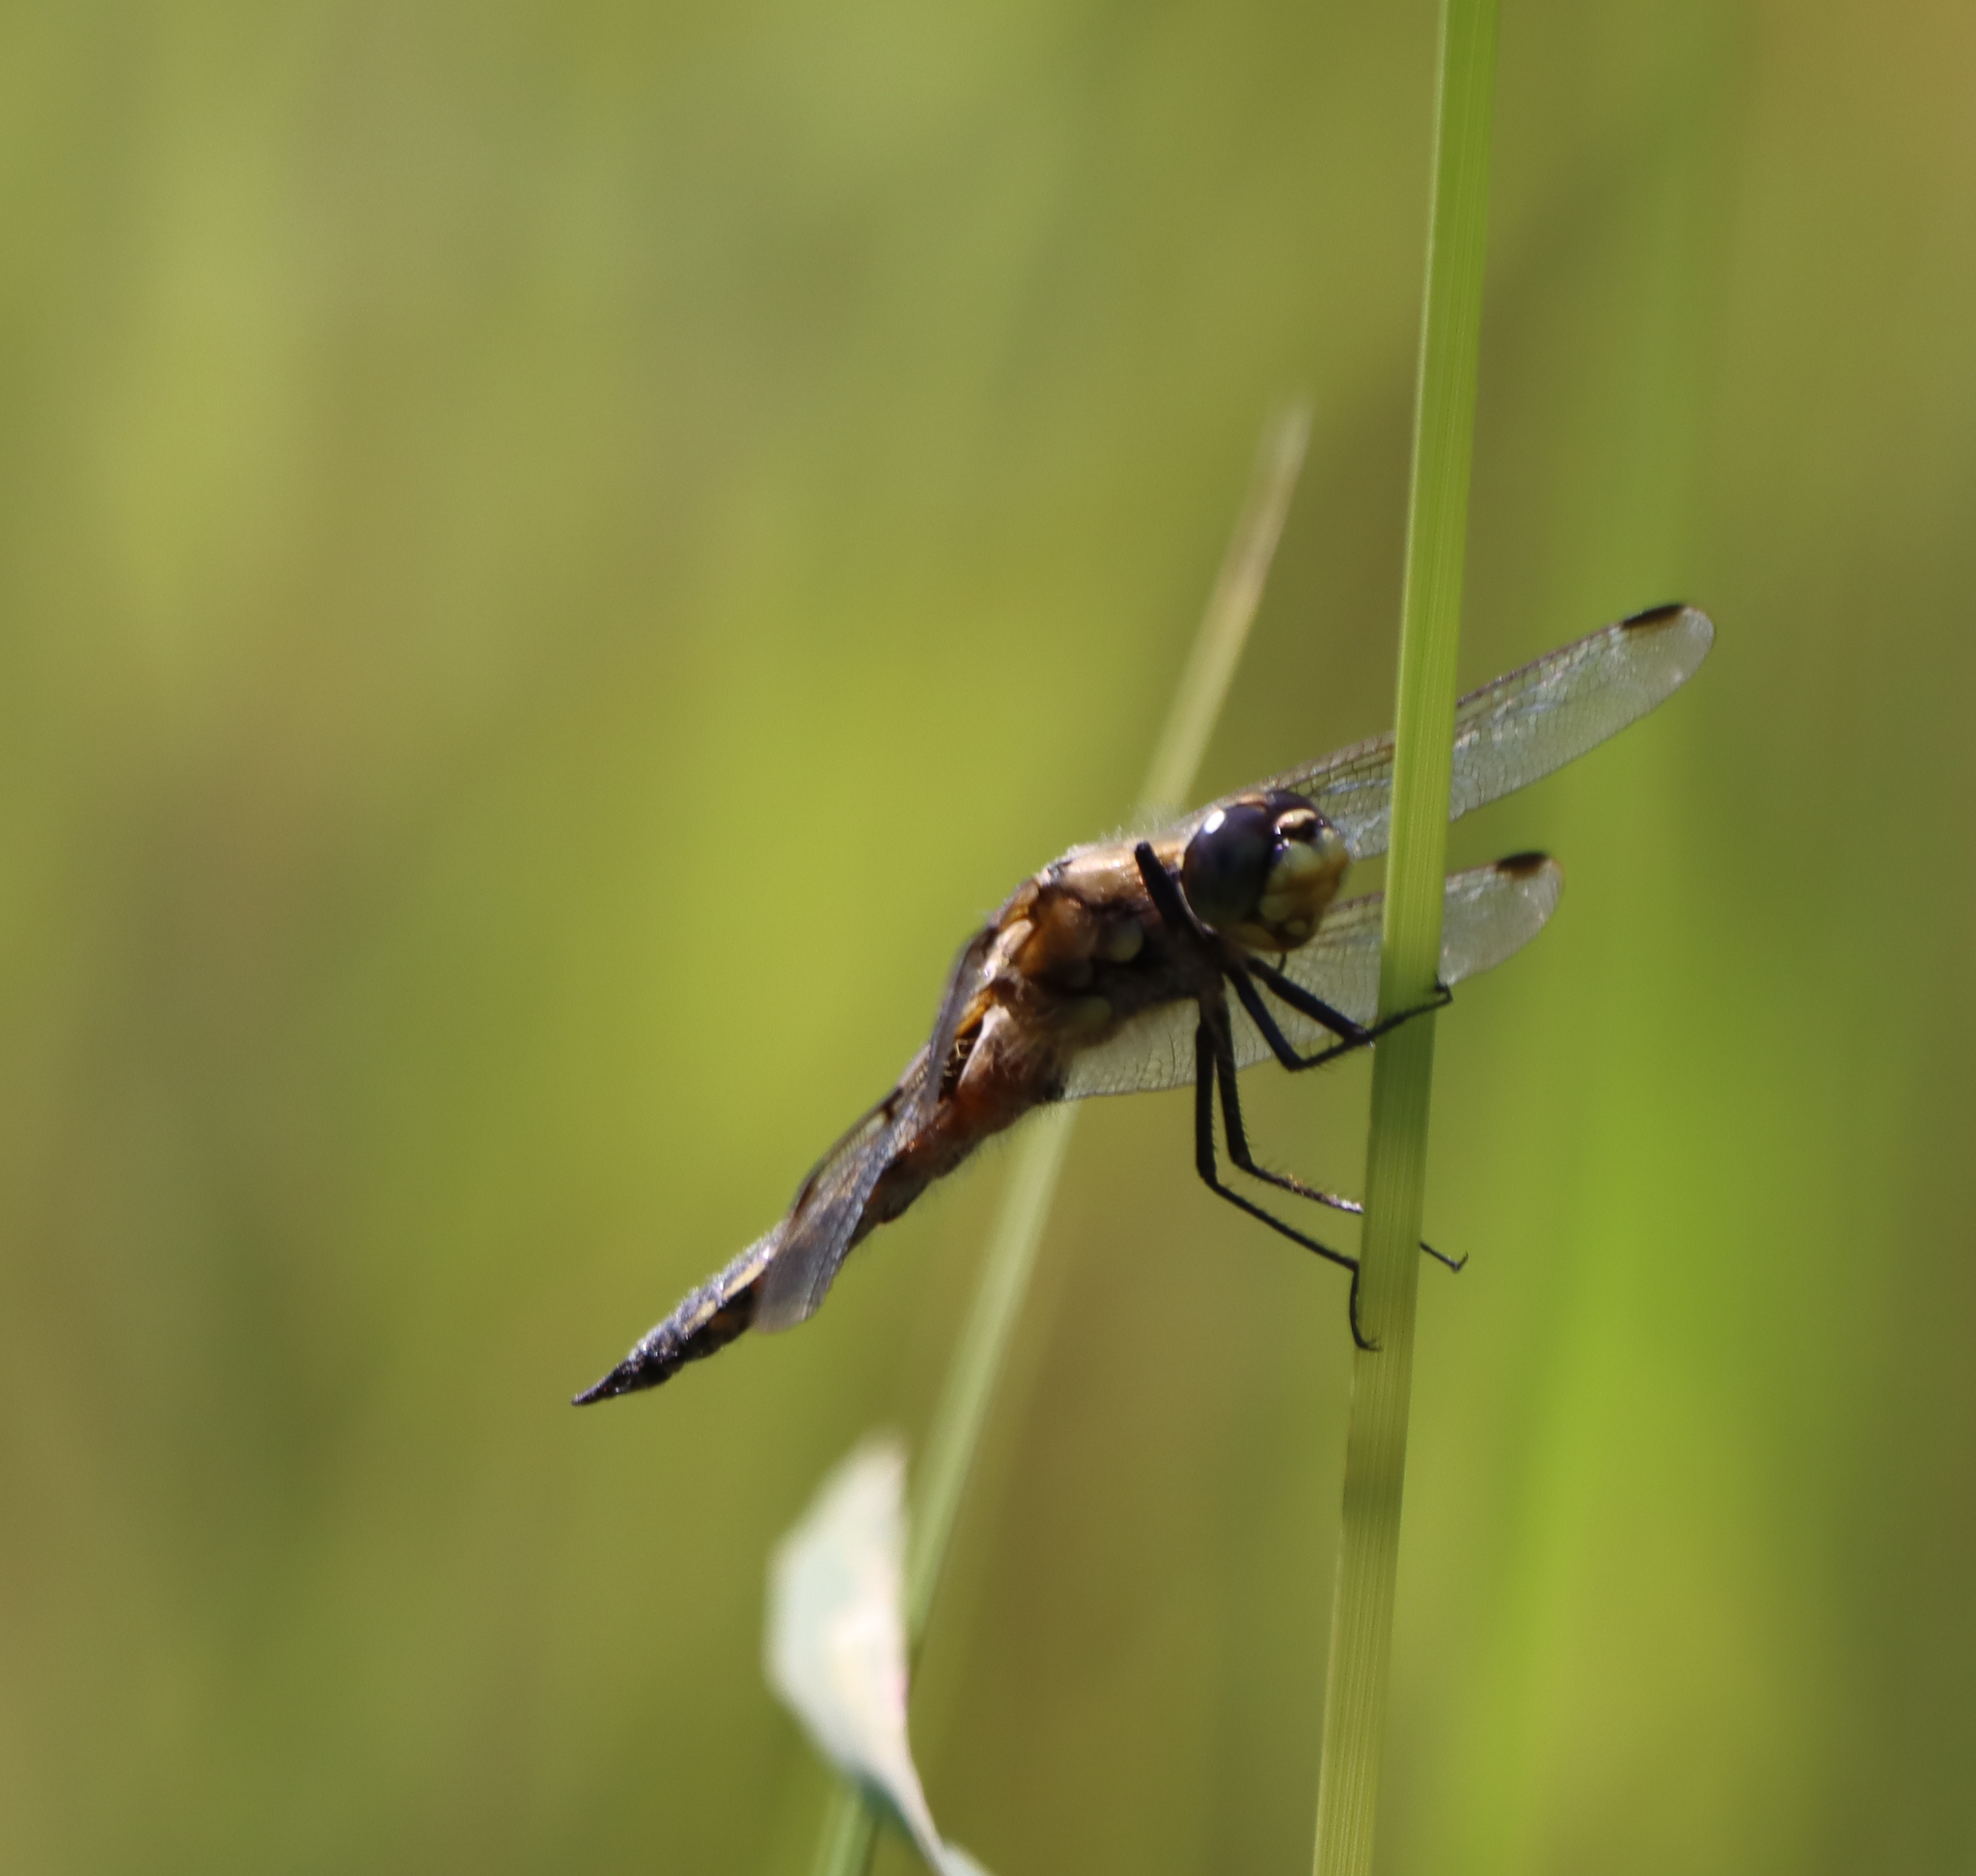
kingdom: Animalia
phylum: Arthropoda
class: Insecta
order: Odonata
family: Libellulidae
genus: Libellula
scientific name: Libellula quadrimaculata
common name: Four-spotted chaser
